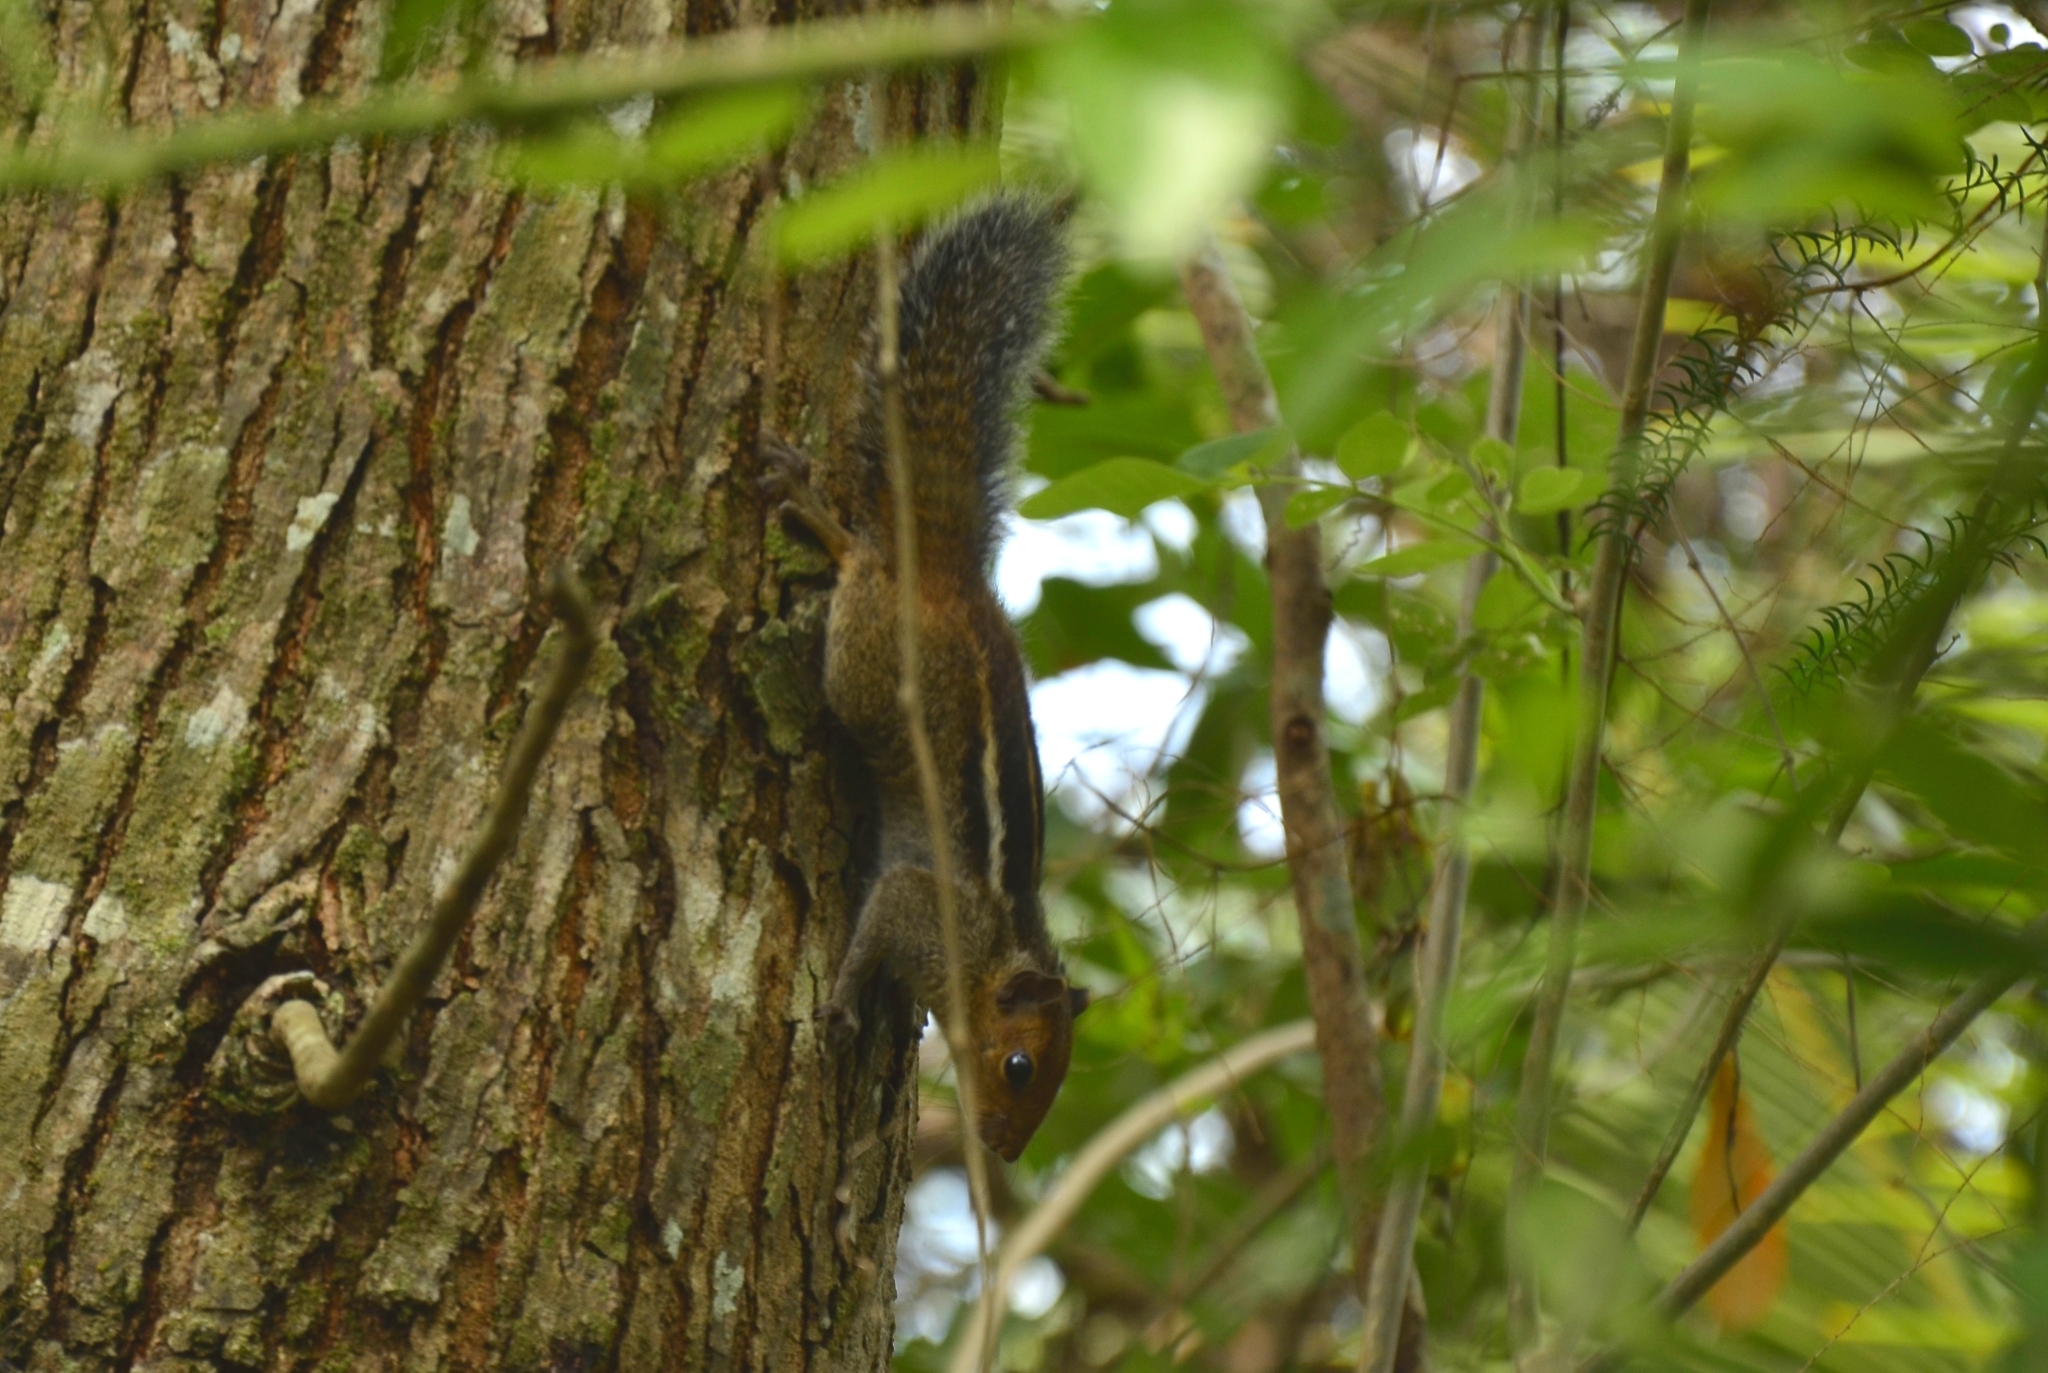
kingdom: Animalia
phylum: Chordata
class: Mammalia
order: Rodentia
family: Sciuridae
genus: Funambulus
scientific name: Funambulus tristriatus
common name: Jungle palm squirrel
